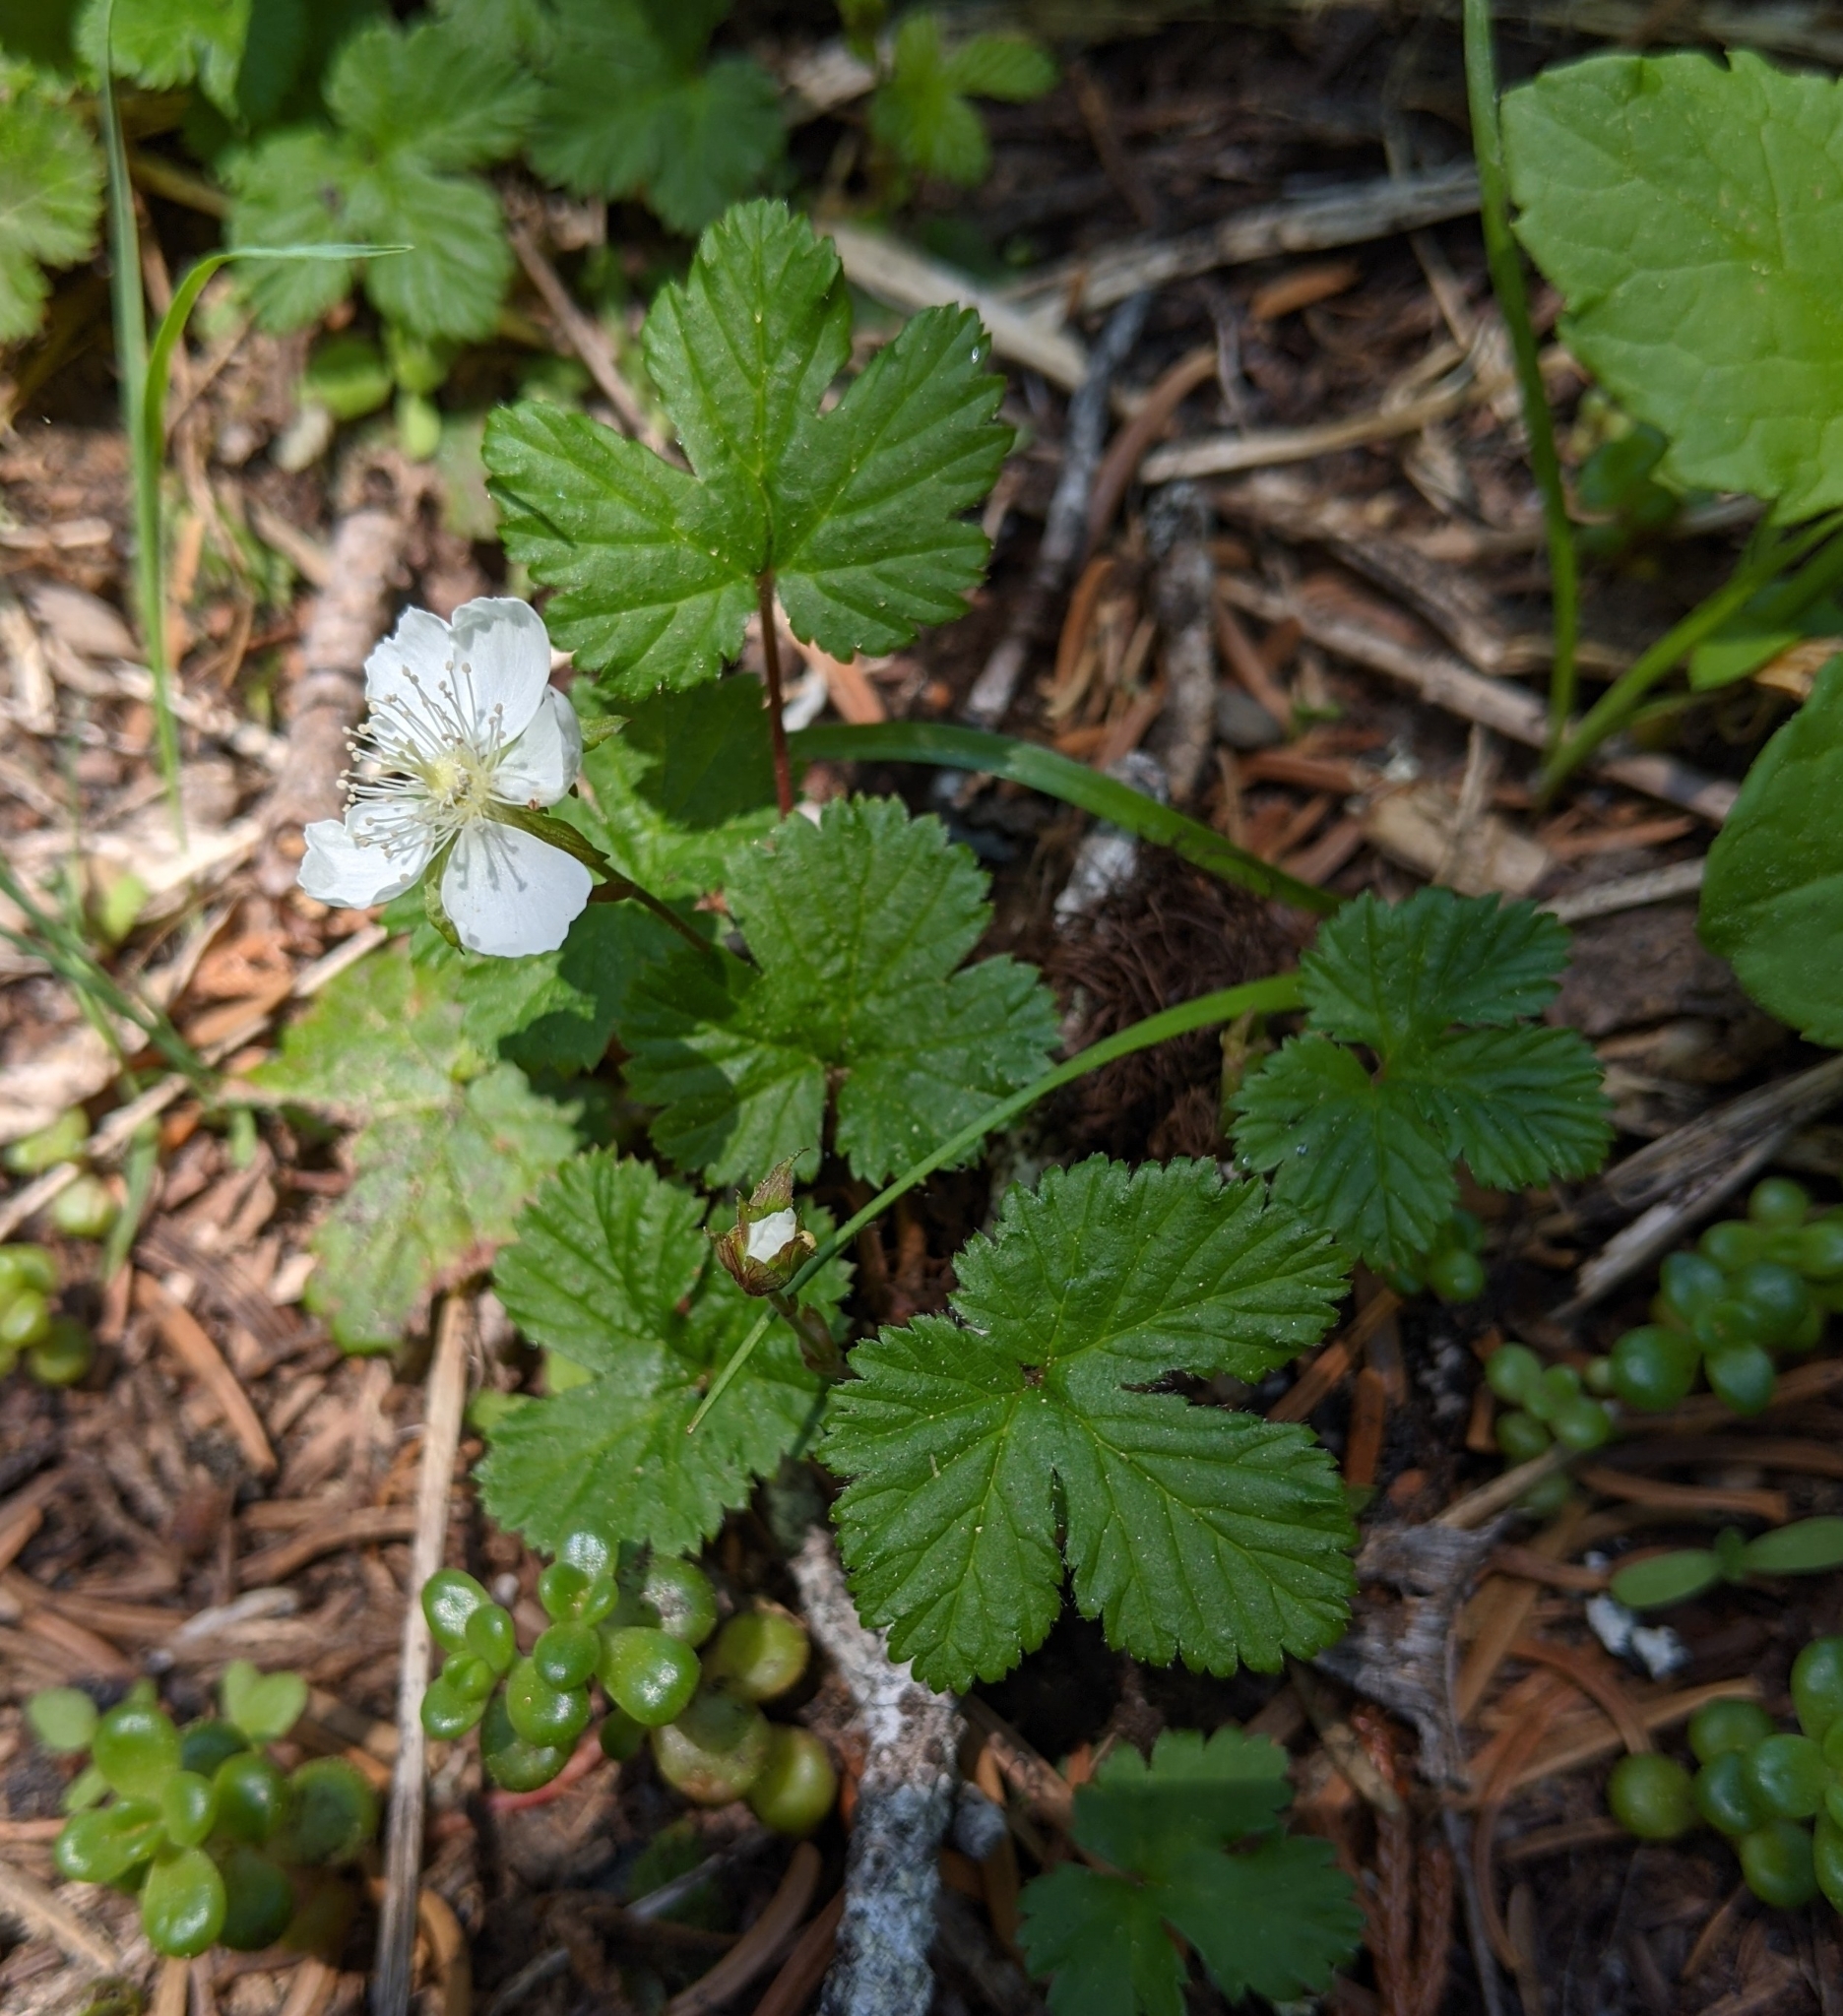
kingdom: Plantae
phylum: Tracheophyta
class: Magnoliopsida
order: Rosales
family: Rosaceae
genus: Rubus
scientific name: Rubus lasiococcus
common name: Dwarf bramble
